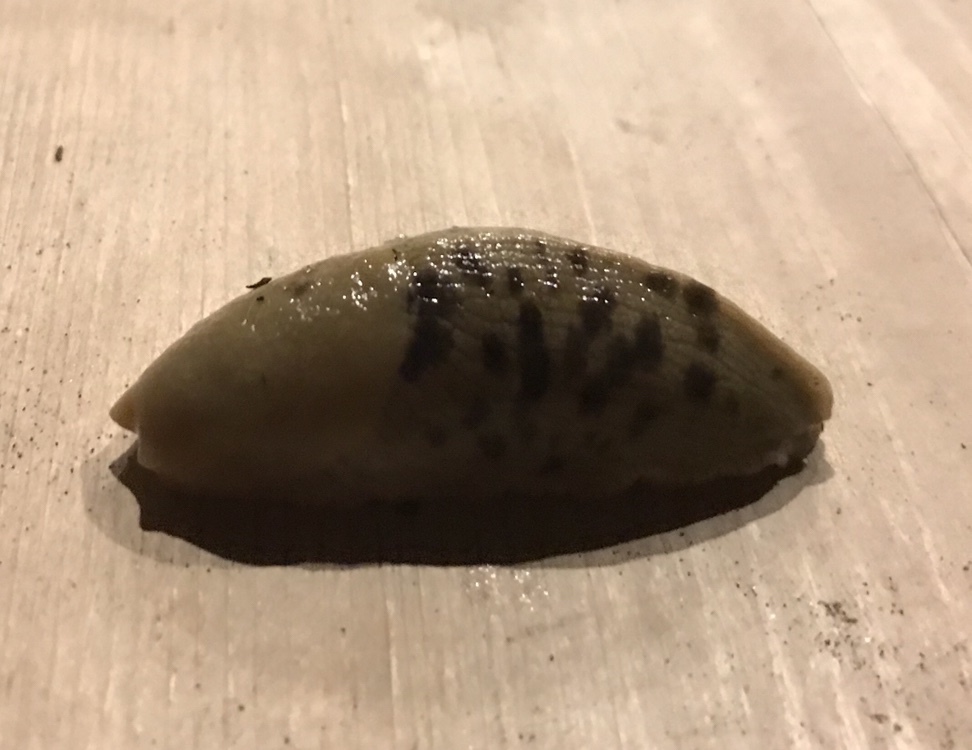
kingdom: Animalia
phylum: Mollusca
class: Gastropoda
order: Stylommatophora
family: Ariolimacidae
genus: Ariolimax
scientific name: Ariolimax columbianus
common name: Pacific banana slug
